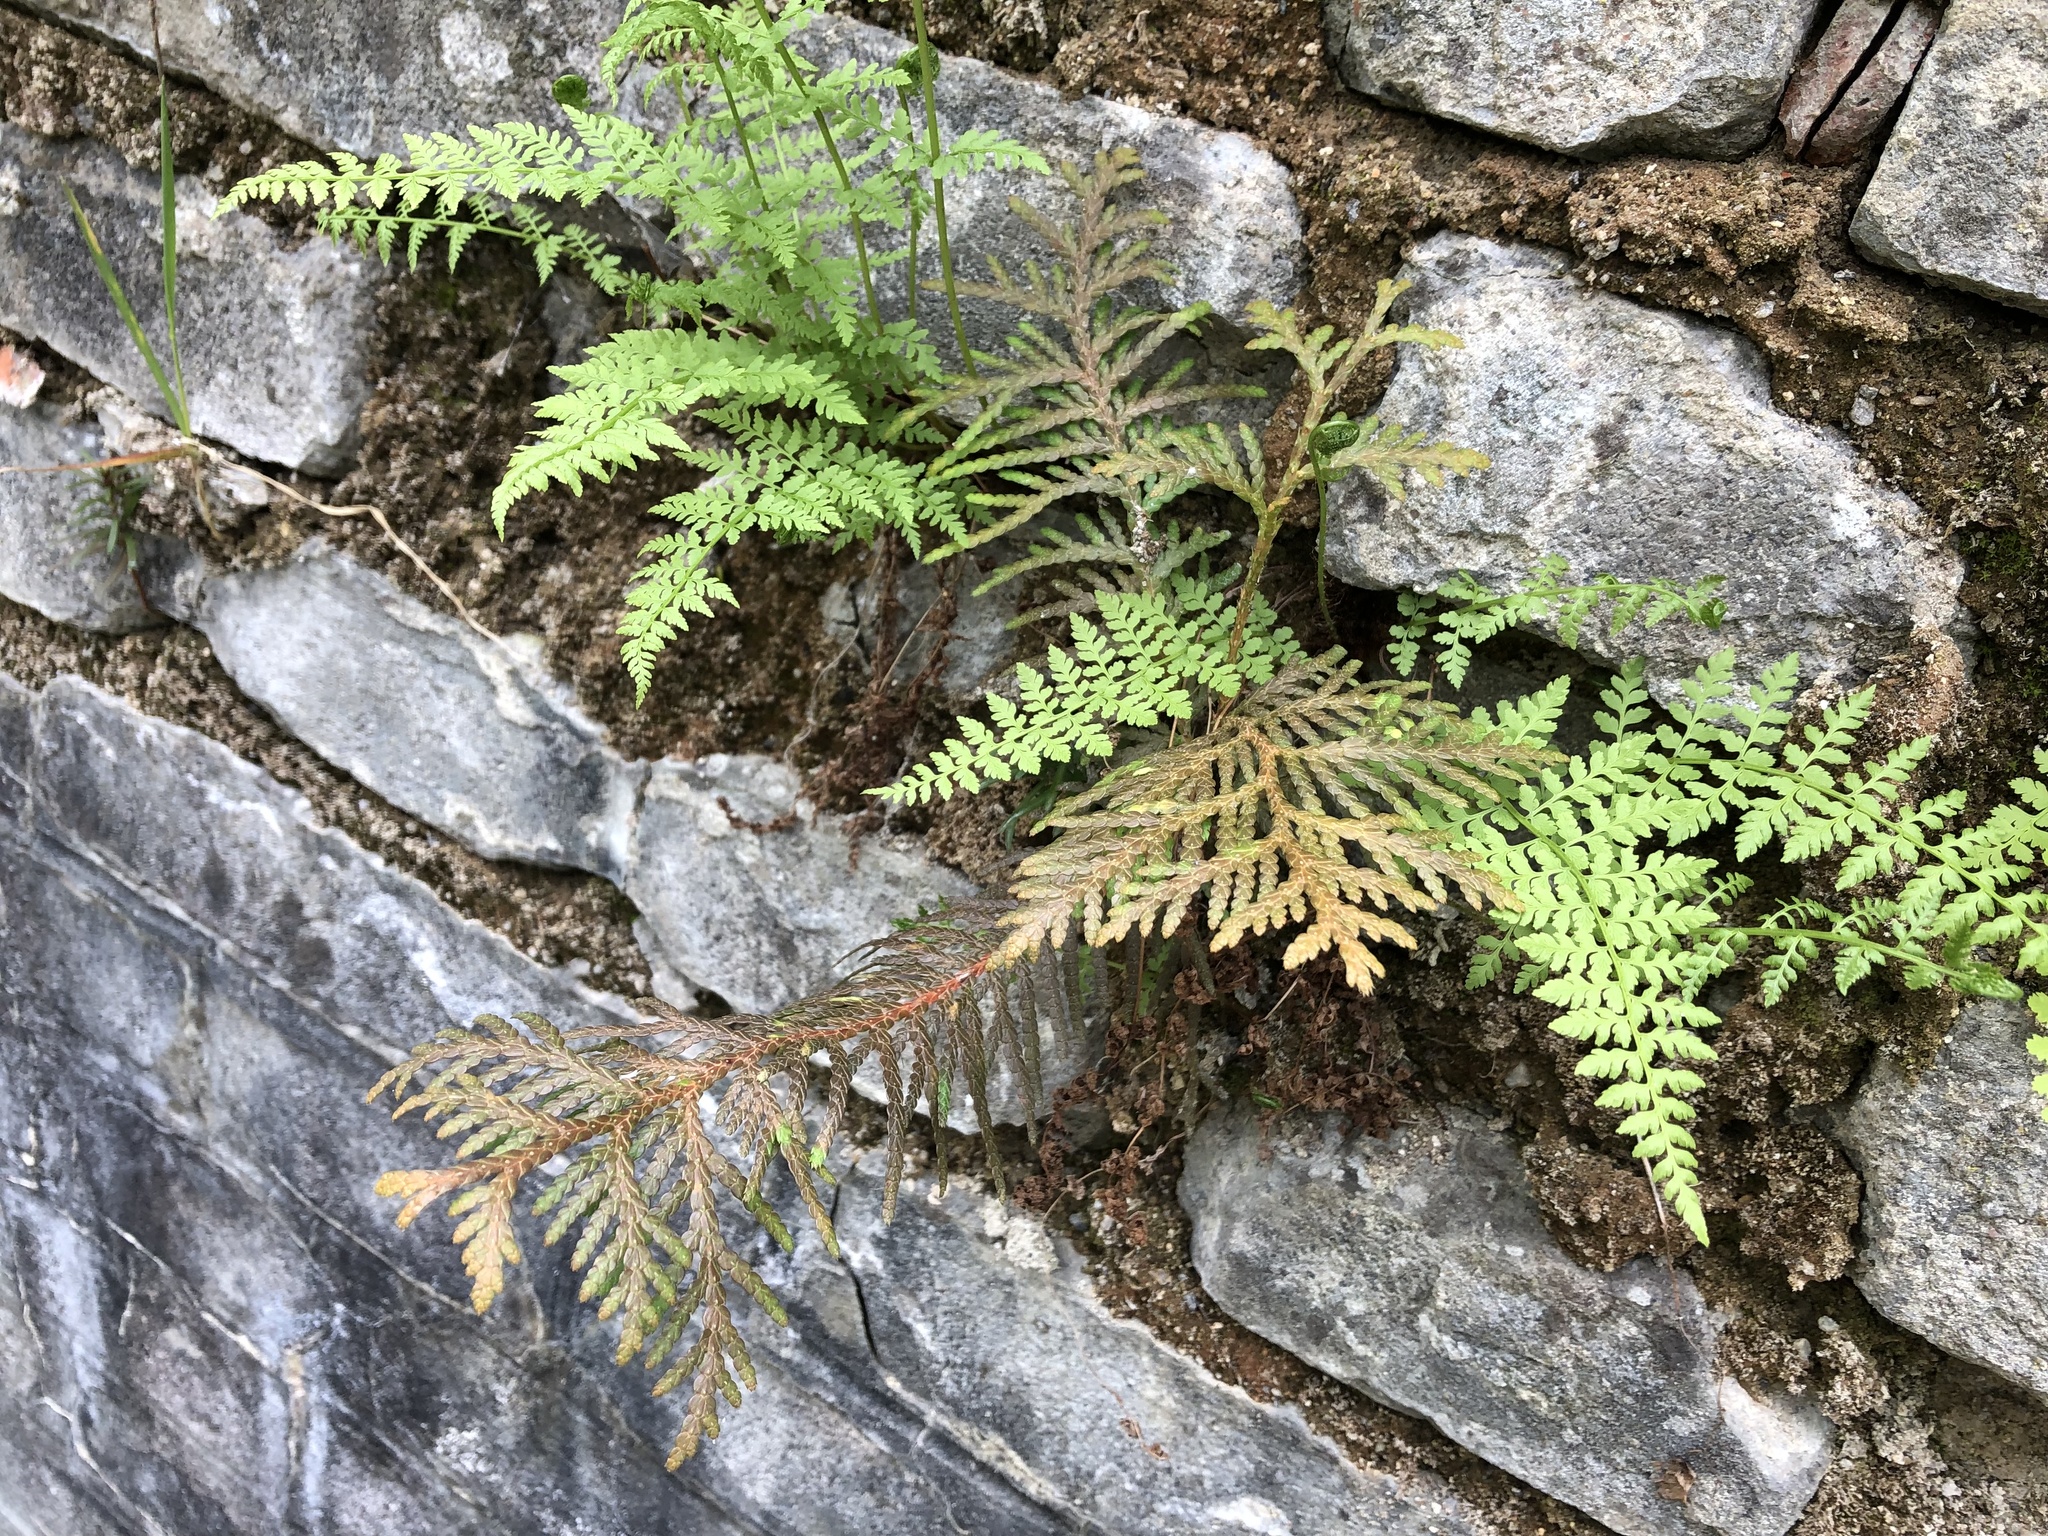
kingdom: Plantae
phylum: Tracheophyta
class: Pinopsida
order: Pinales
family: Cupressaceae
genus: Thuja
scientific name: Thuja occidentalis
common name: Northern white-cedar
